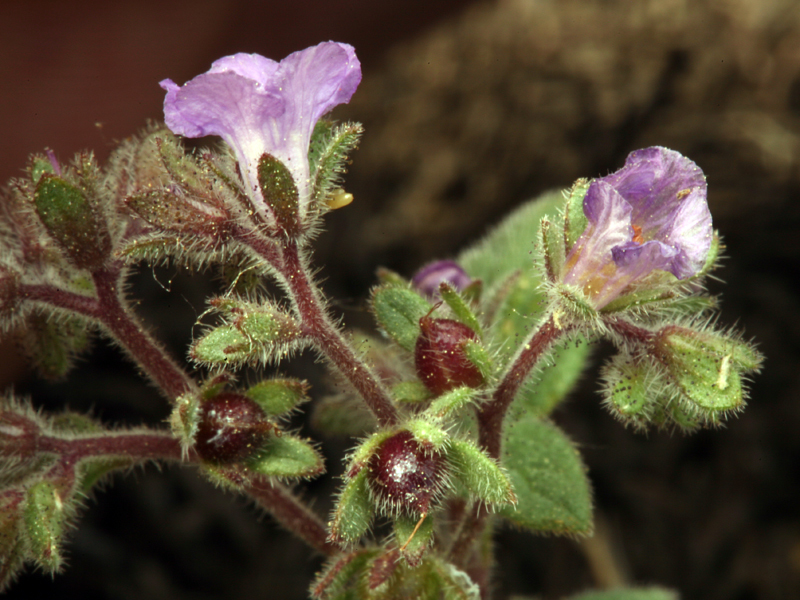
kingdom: Plantae
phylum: Tracheophyta
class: Magnoliopsida
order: Boraginales
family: Hydrophyllaceae
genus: Phacelia
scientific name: Phacelia vallicola
